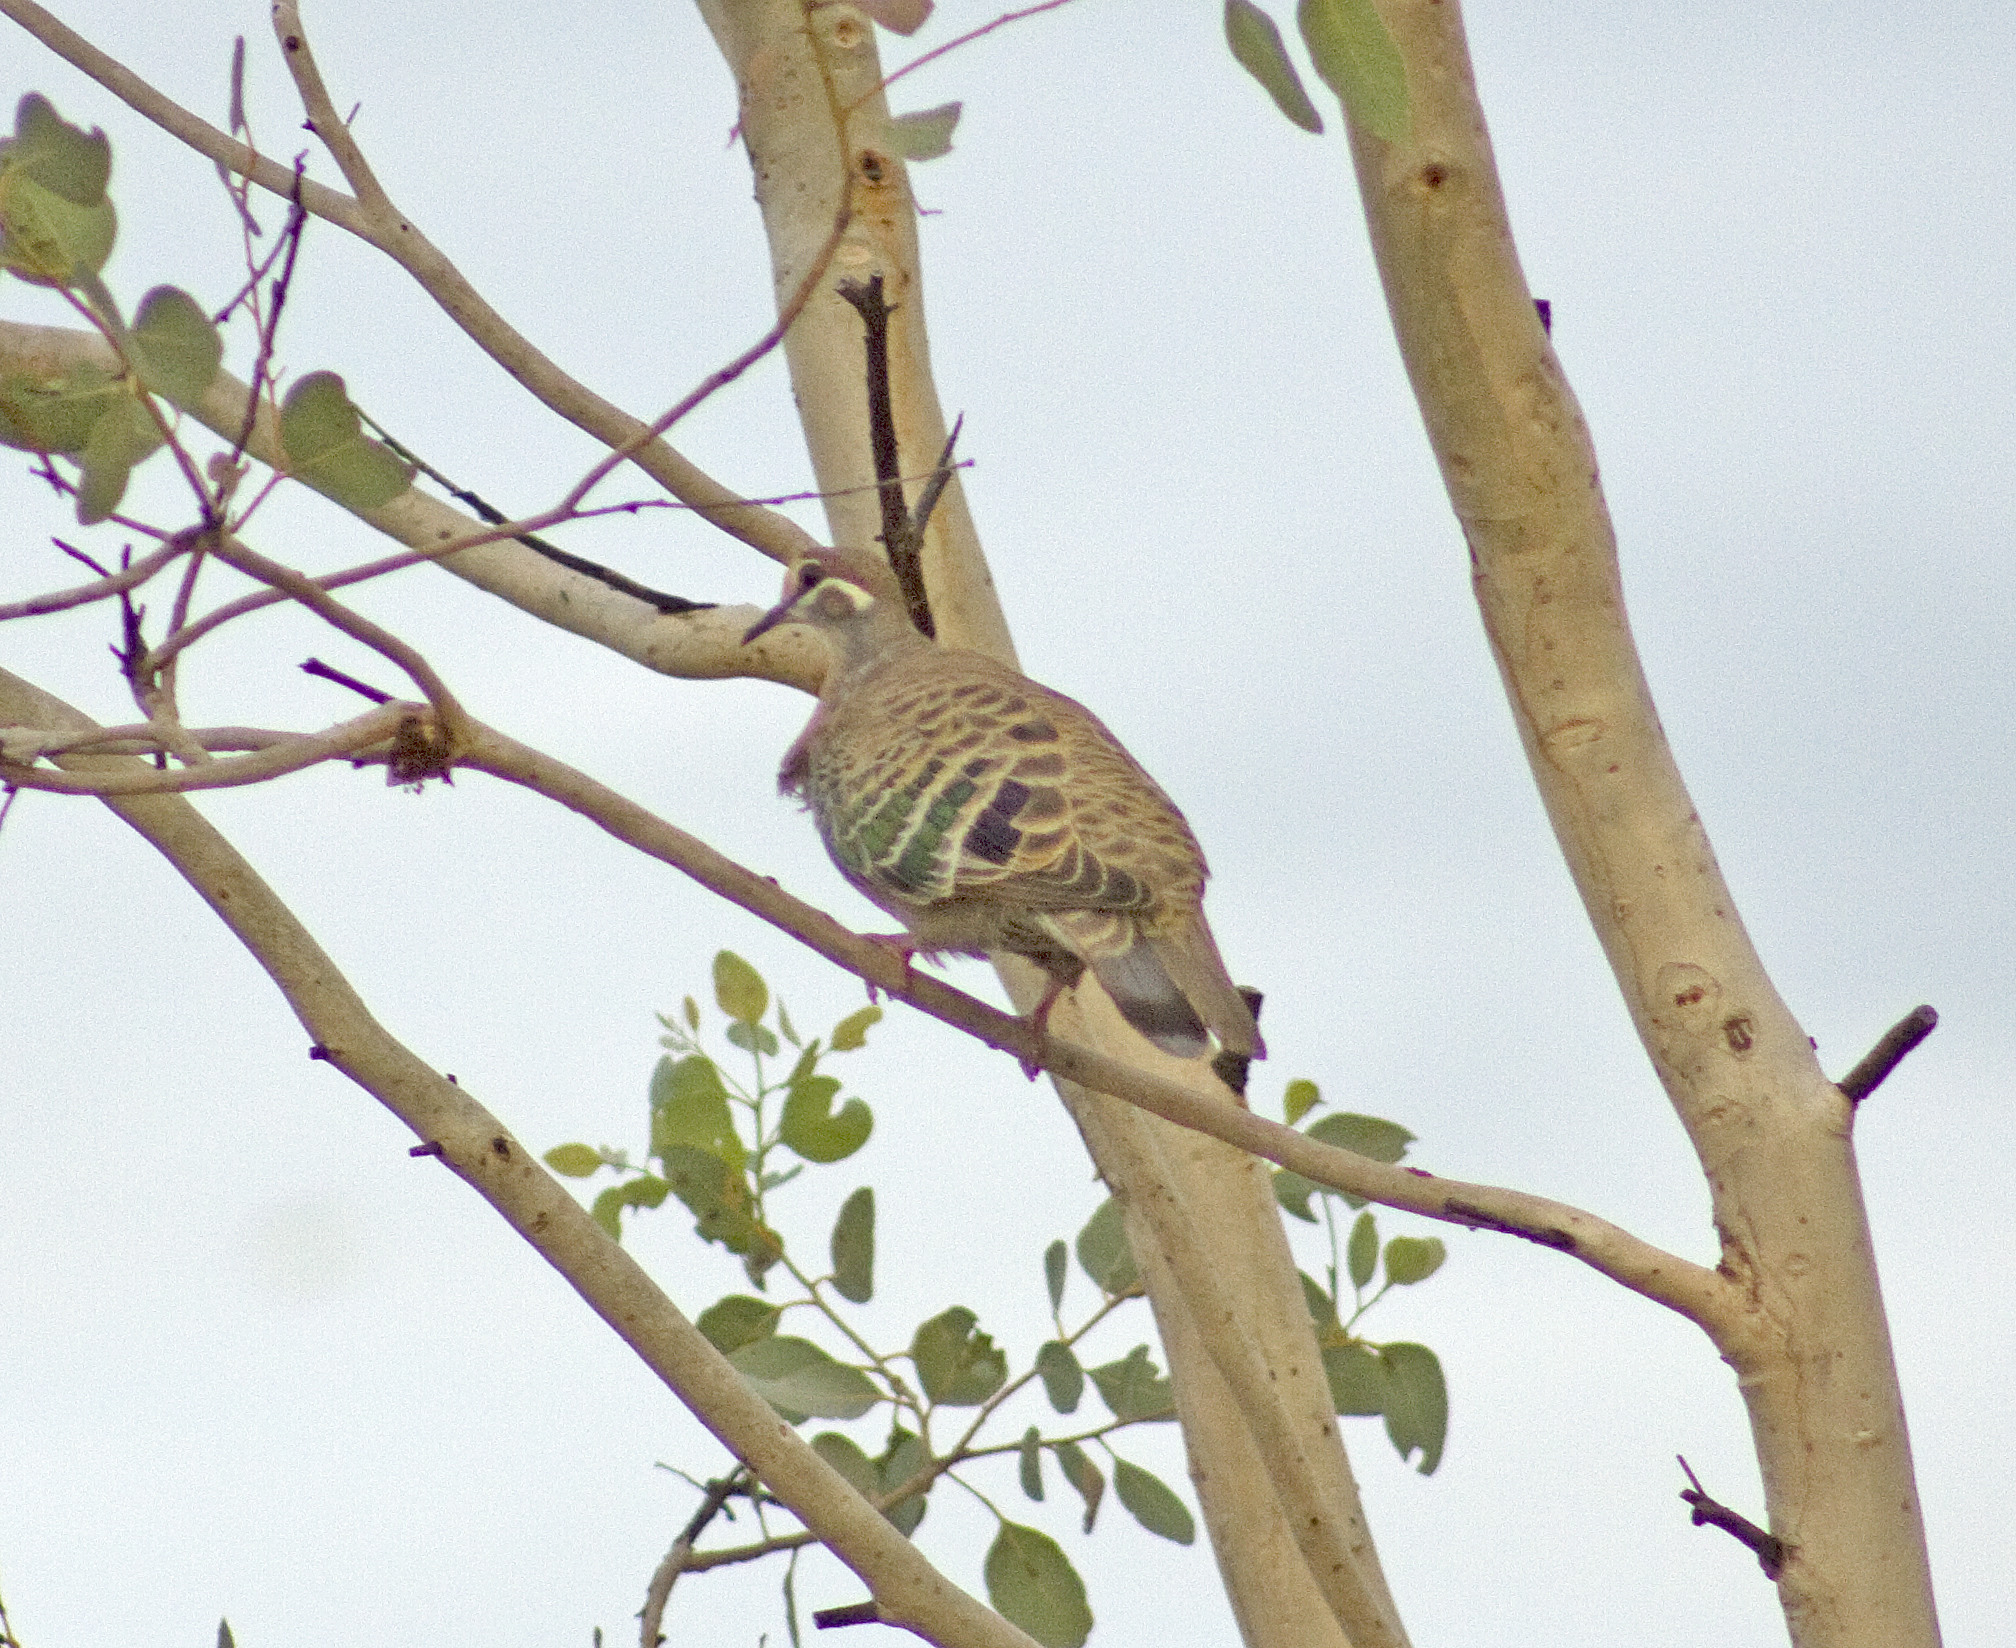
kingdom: Animalia
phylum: Chordata
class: Aves
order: Columbiformes
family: Columbidae
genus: Phaps
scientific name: Phaps chalcoptera
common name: Common bronzewing
